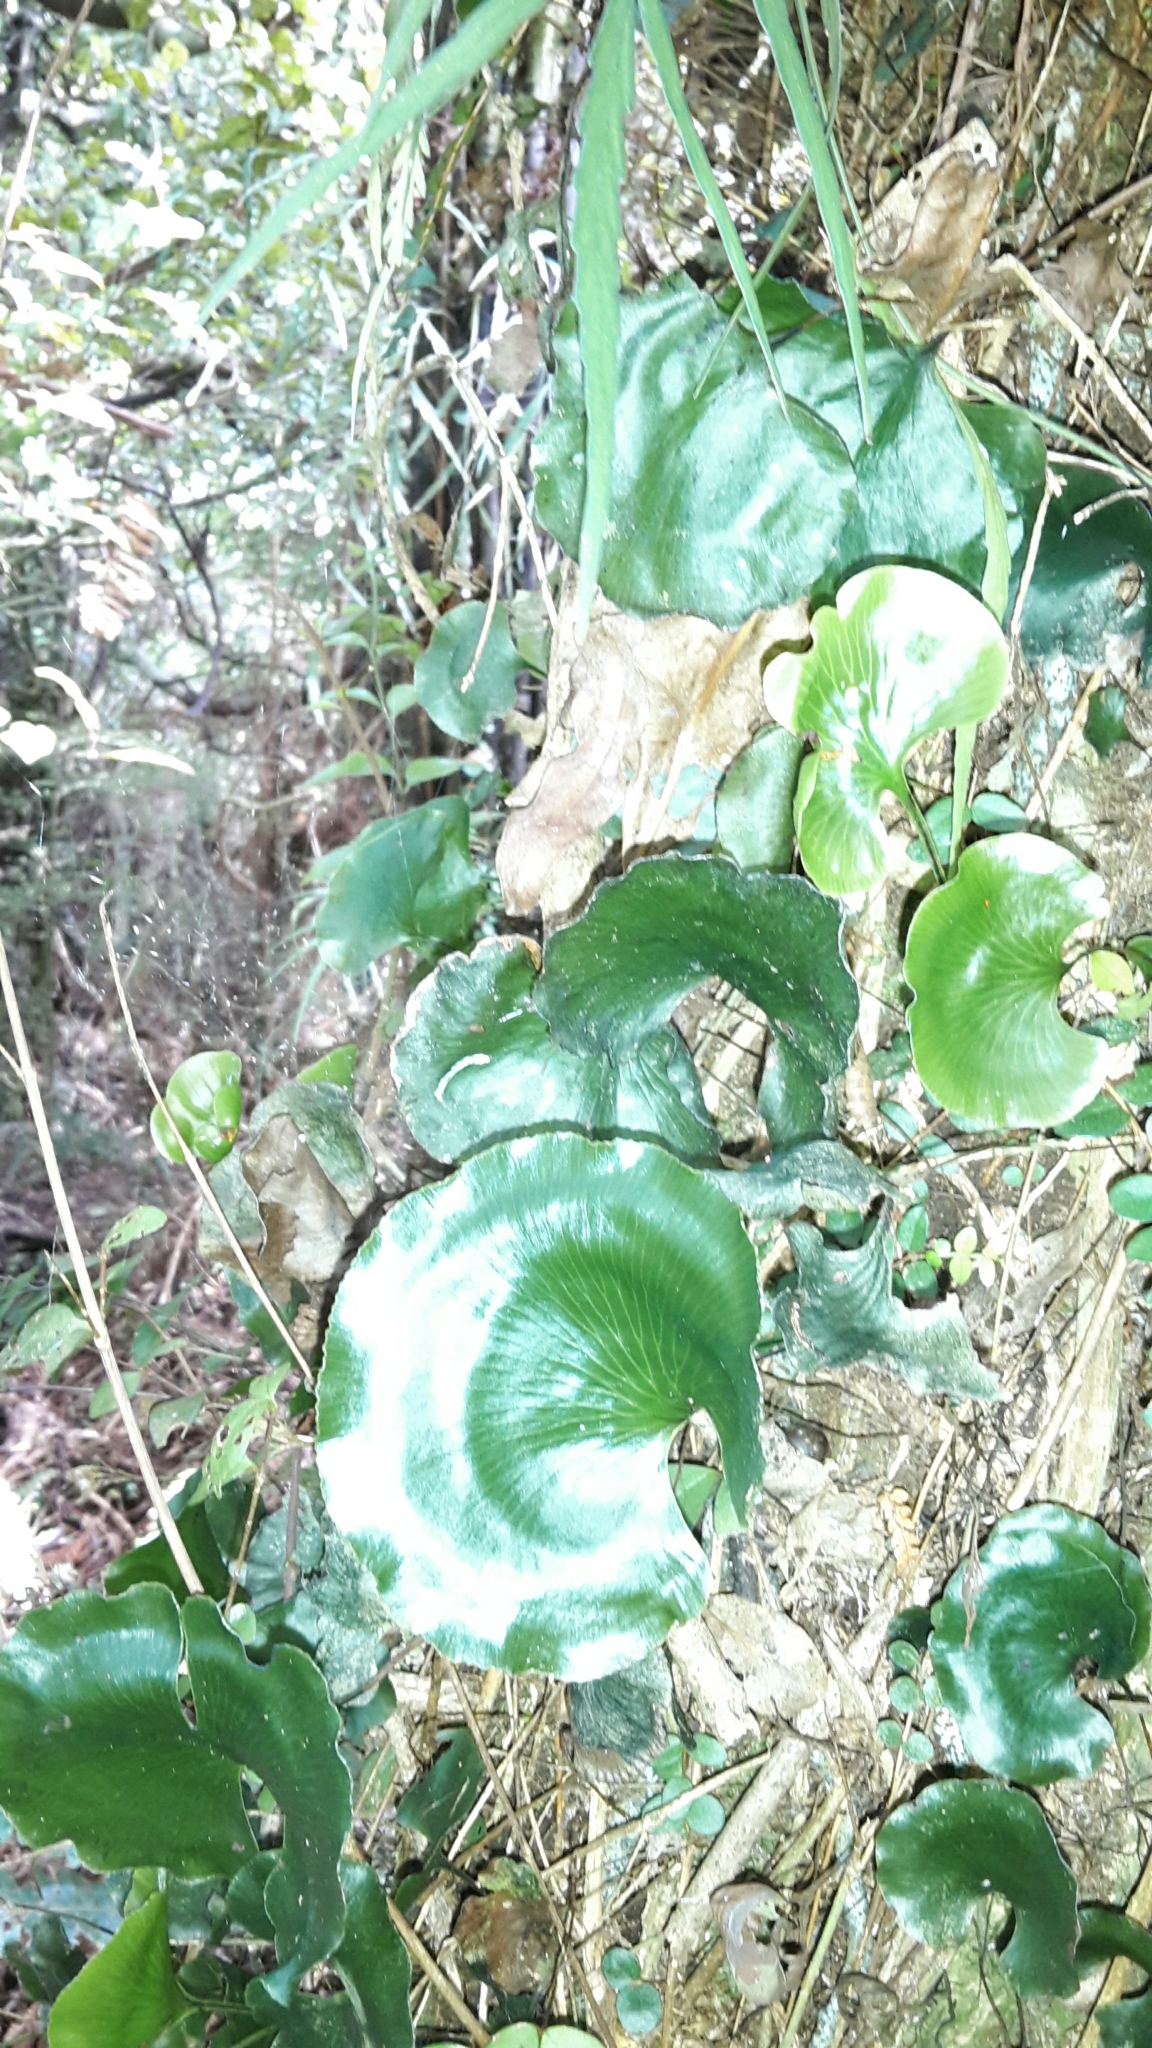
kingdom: Plantae
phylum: Tracheophyta
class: Polypodiopsida
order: Hymenophyllales
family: Hymenophyllaceae
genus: Hymenophyllum
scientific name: Hymenophyllum nephrophyllum
